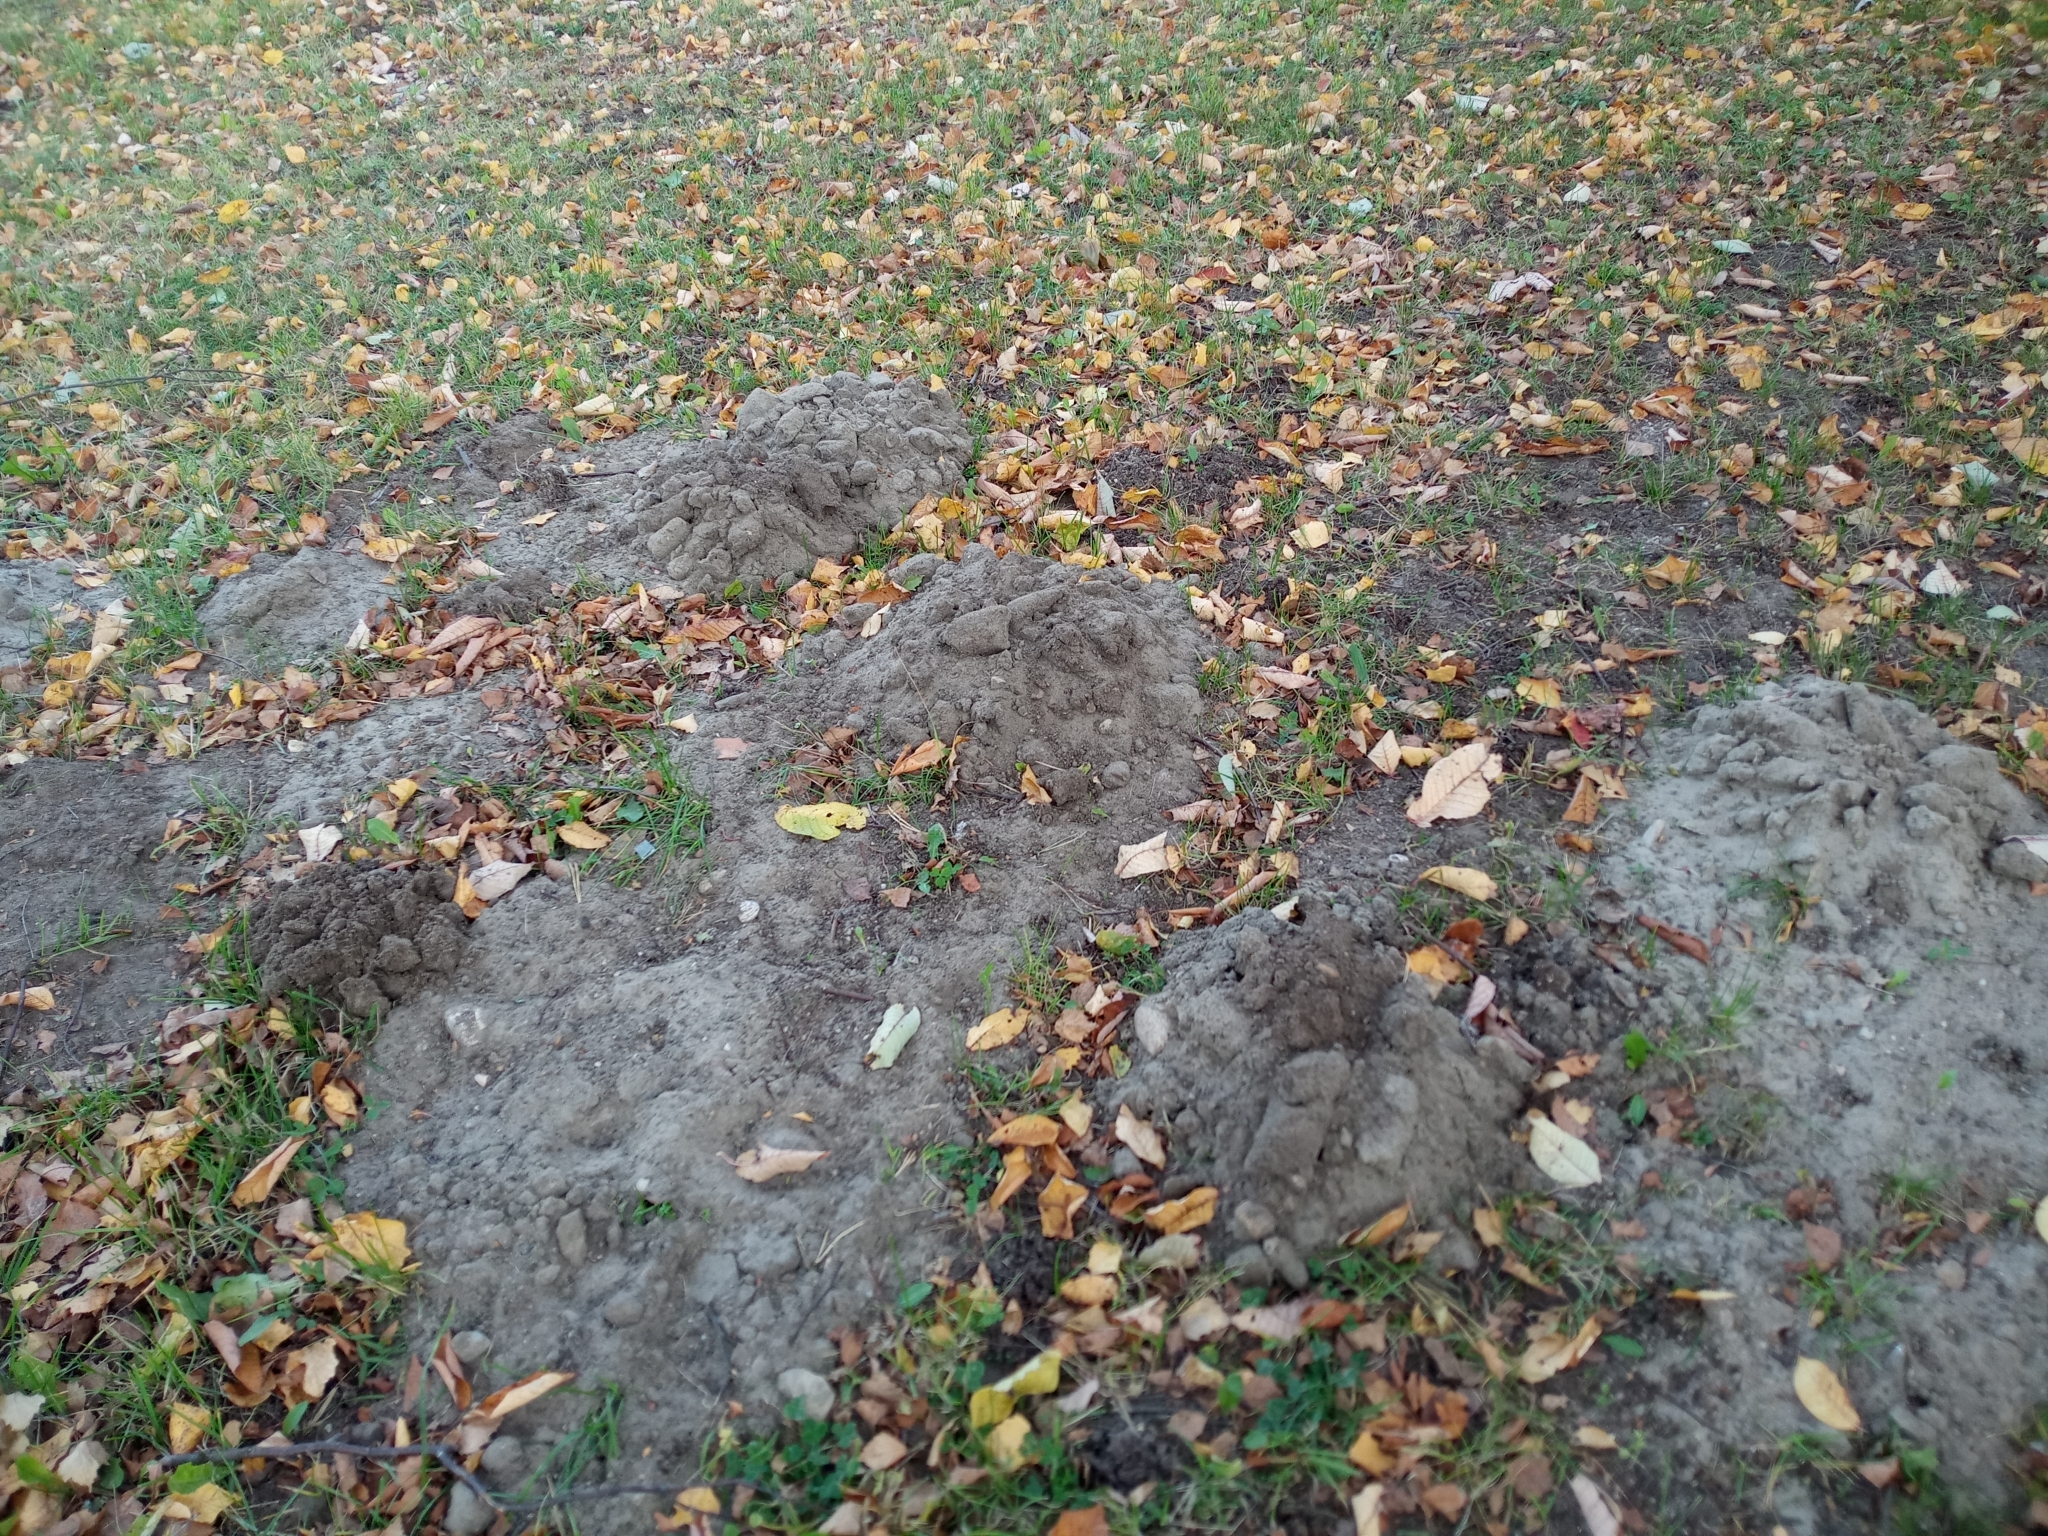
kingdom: Animalia
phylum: Chordata
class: Mammalia
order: Soricomorpha
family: Talpidae
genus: Talpa
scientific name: Talpa europaea
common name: European mole
